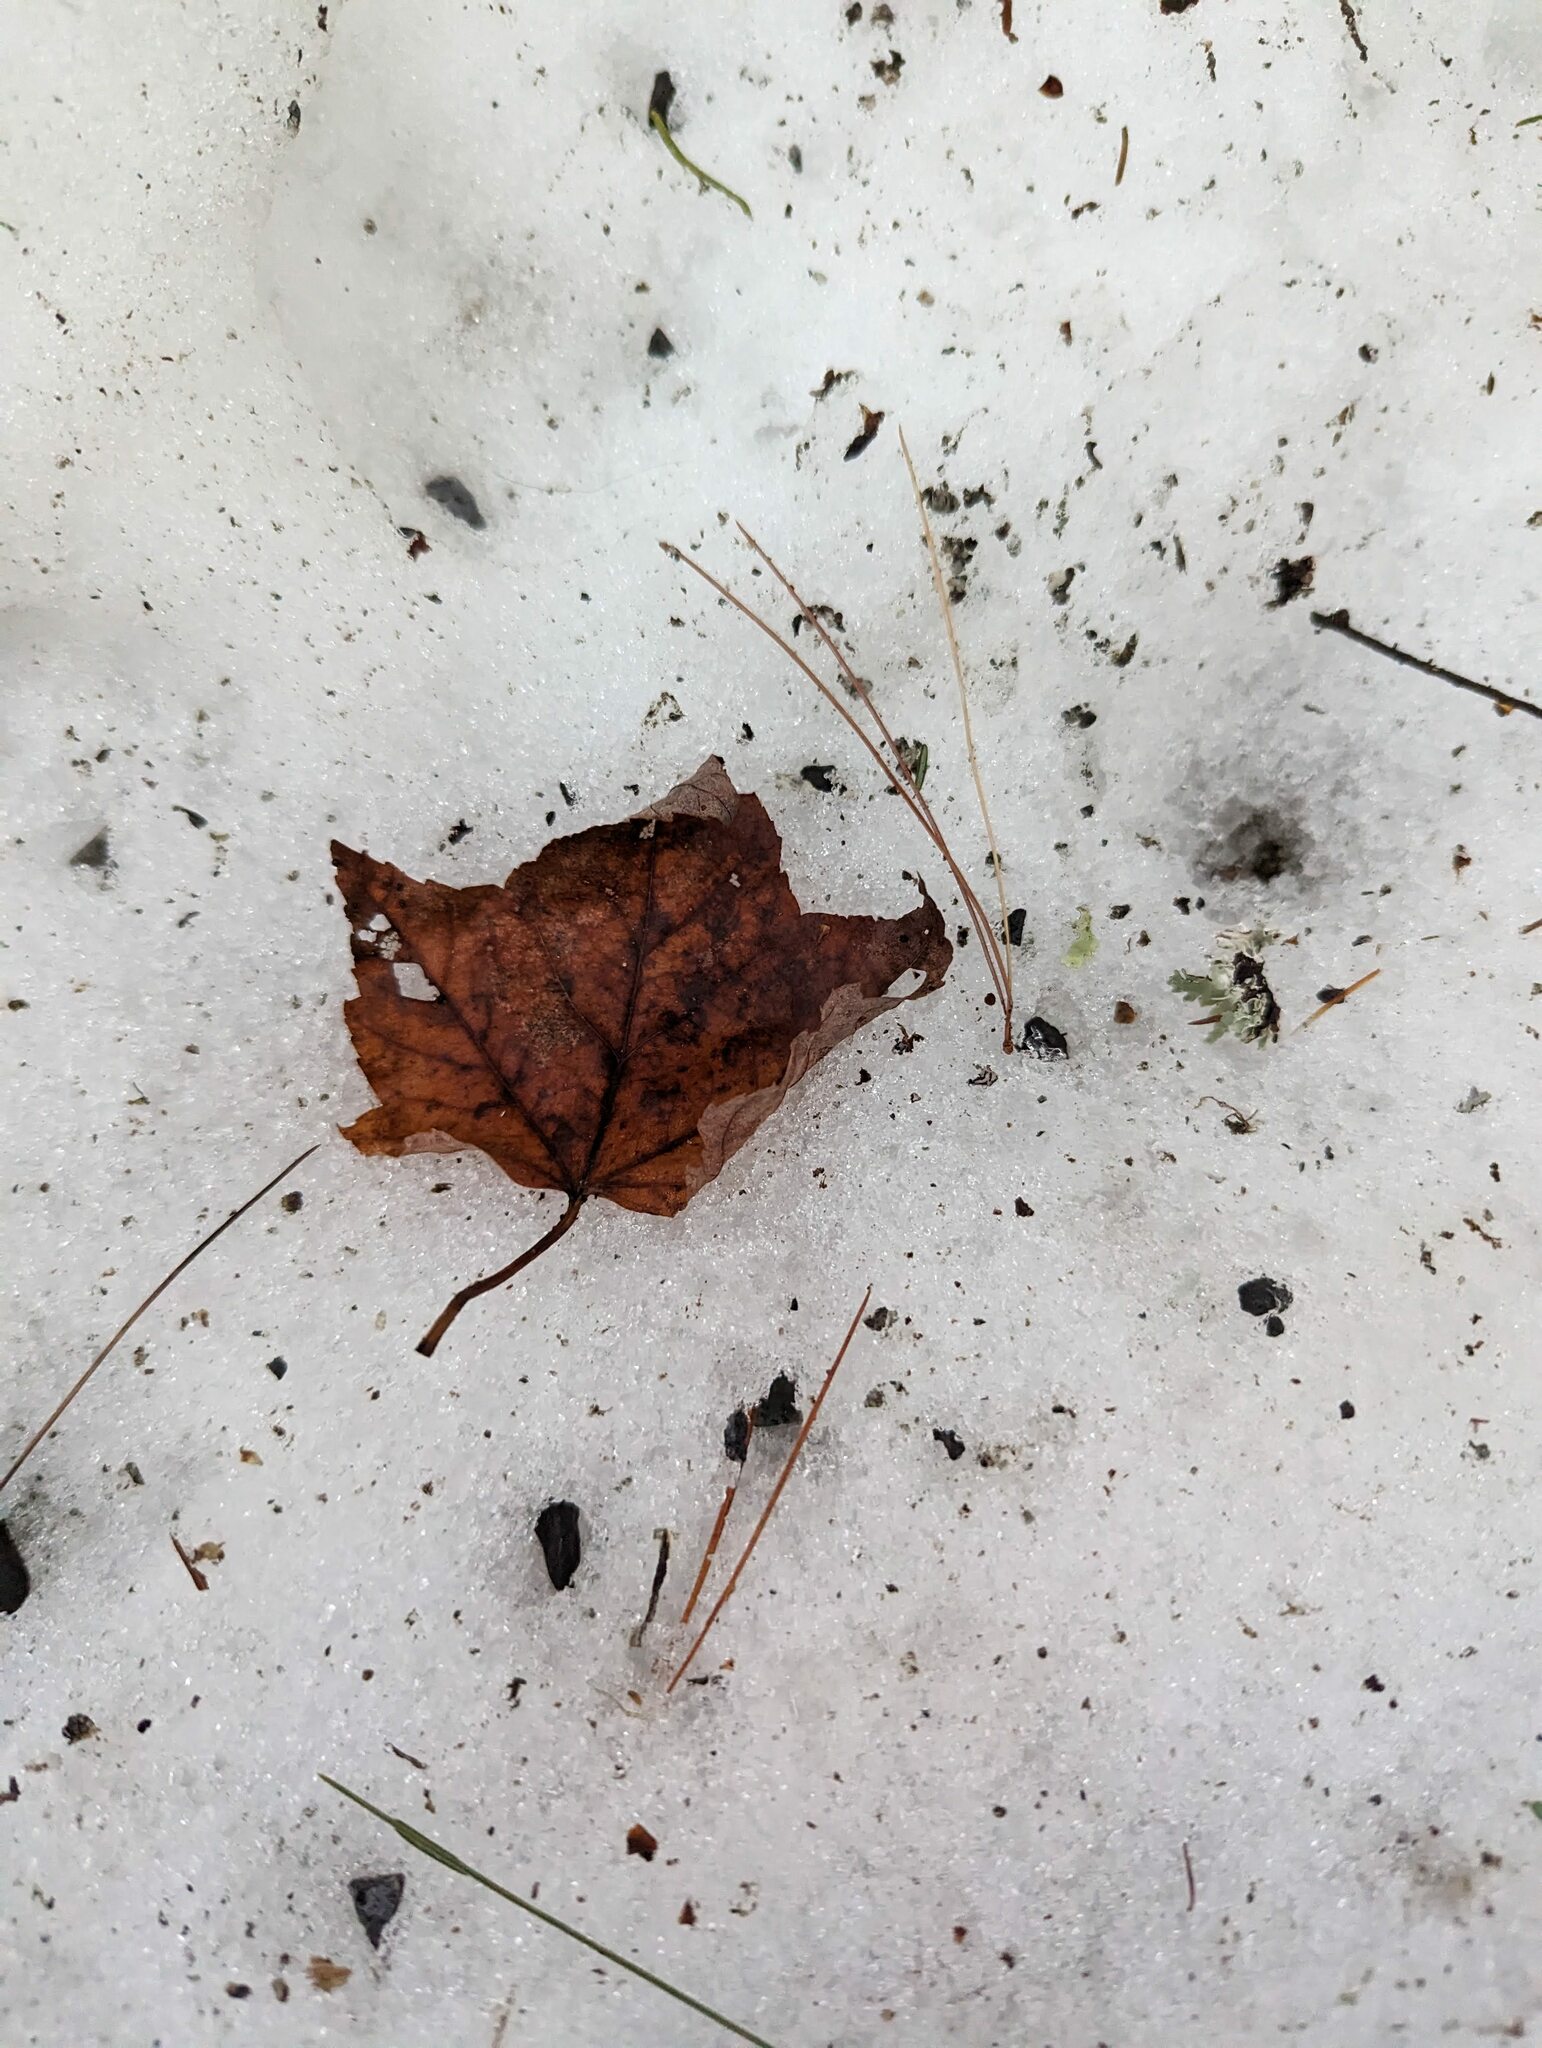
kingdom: Plantae
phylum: Tracheophyta
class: Magnoliopsida
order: Sapindales
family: Sapindaceae
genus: Acer
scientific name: Acer rubrum
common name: Red maple
